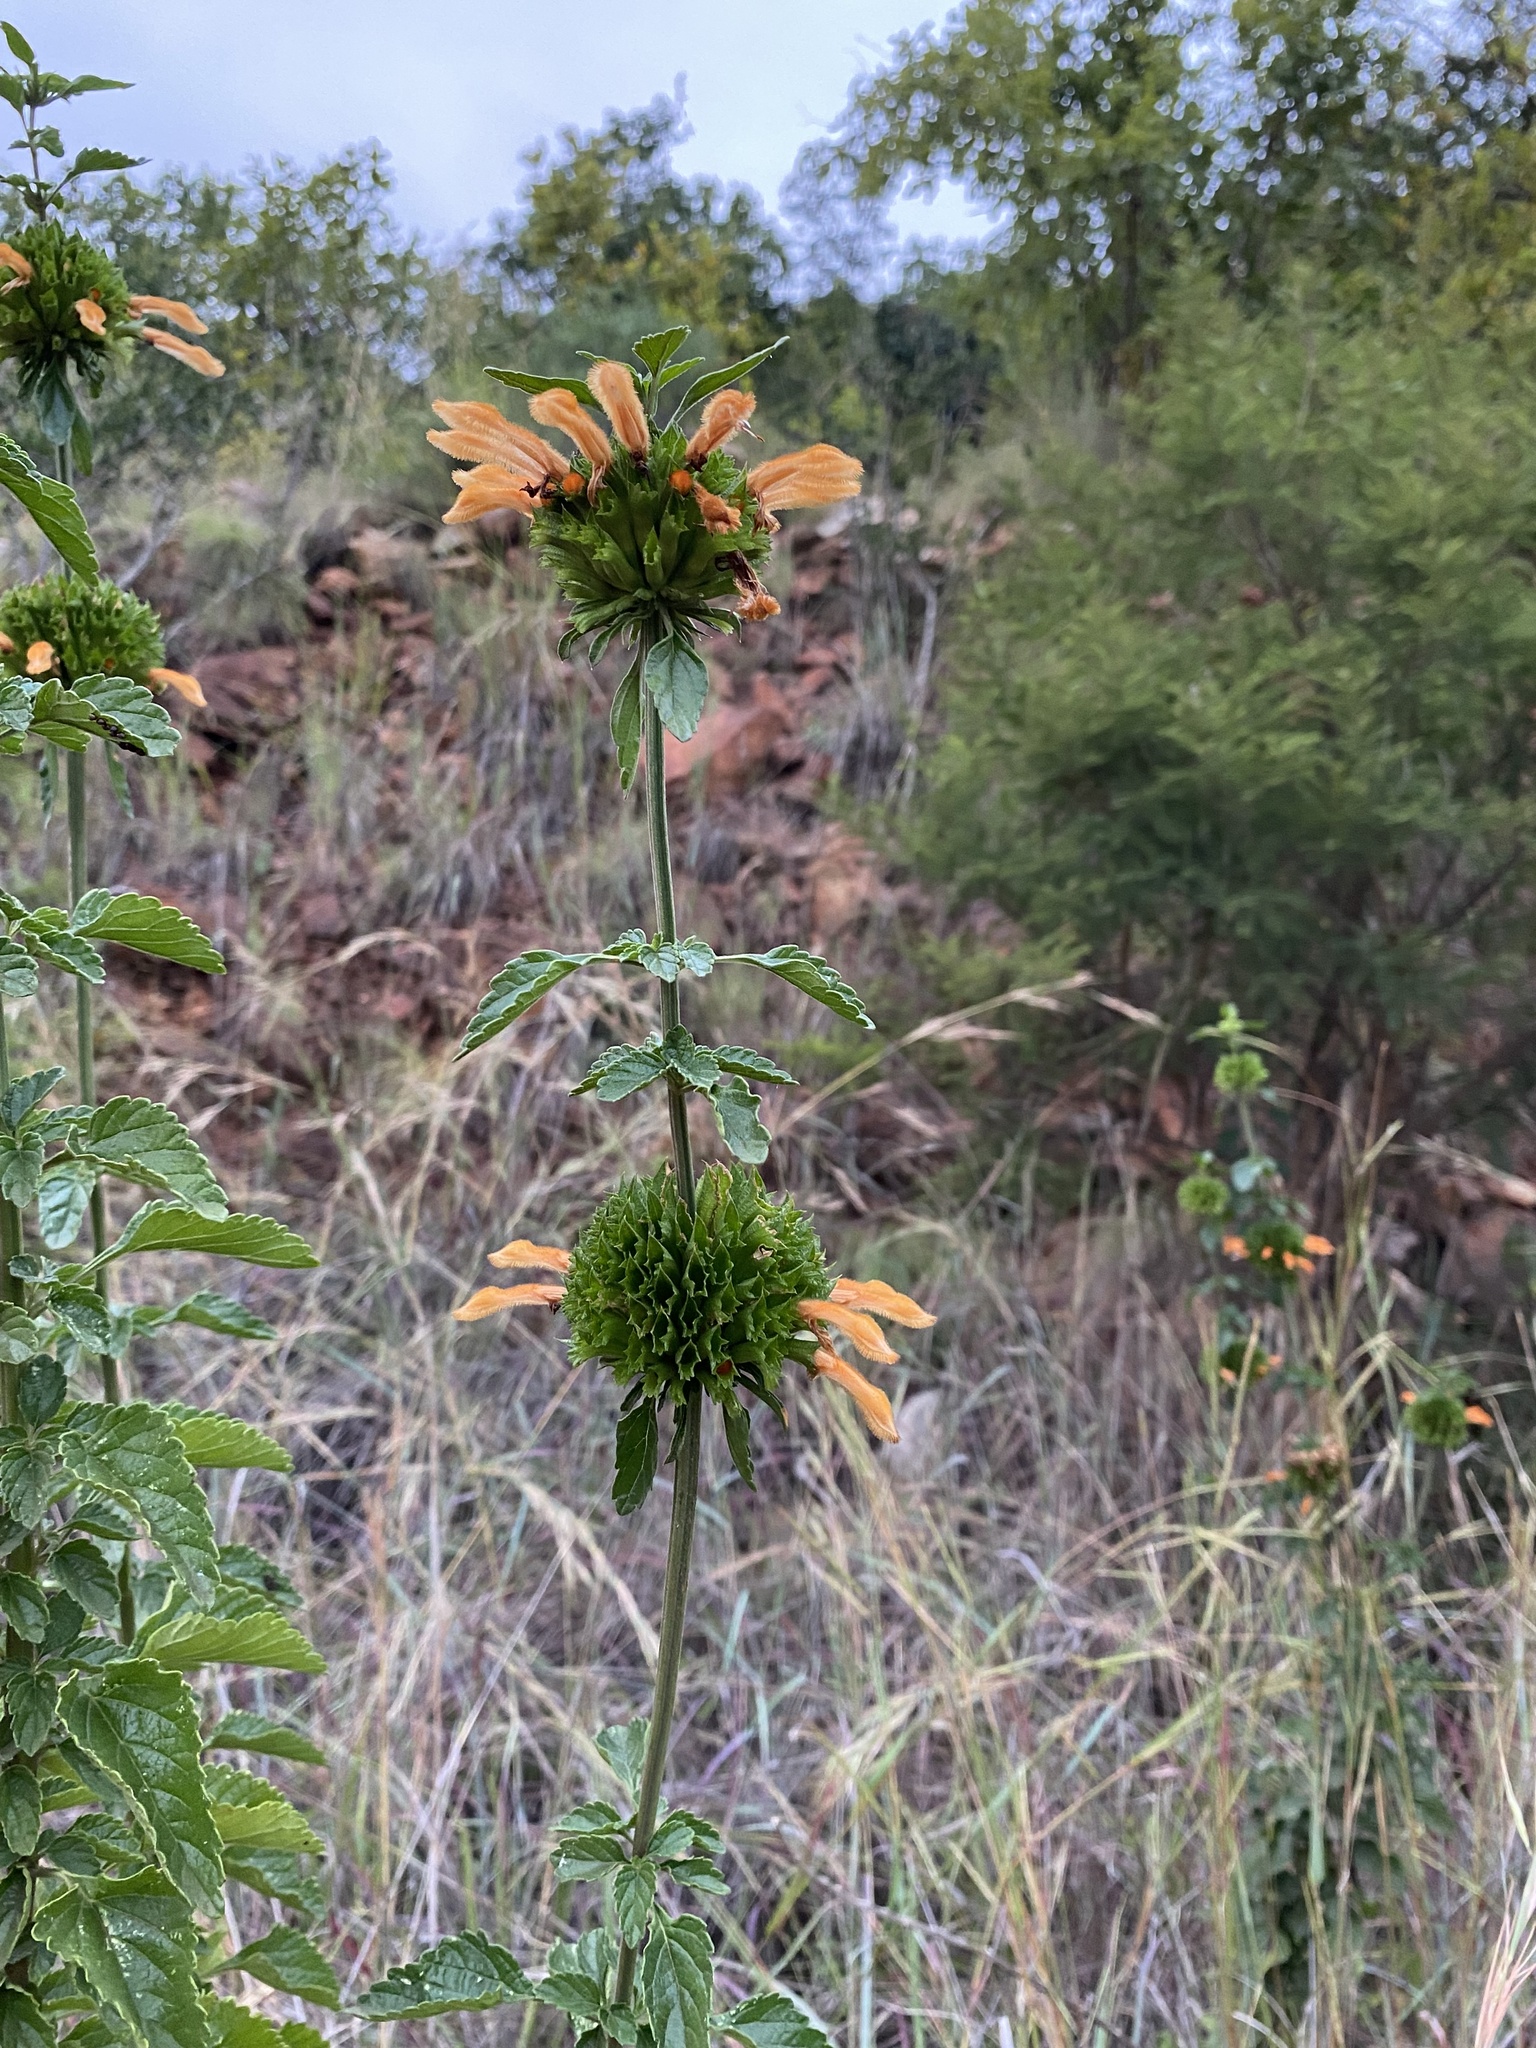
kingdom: Plantae
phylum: Tracheophyta
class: Magnoliopsida
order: Lamiales
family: Lamiaceae
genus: Leonotis
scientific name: Leonotis ocymifolia
